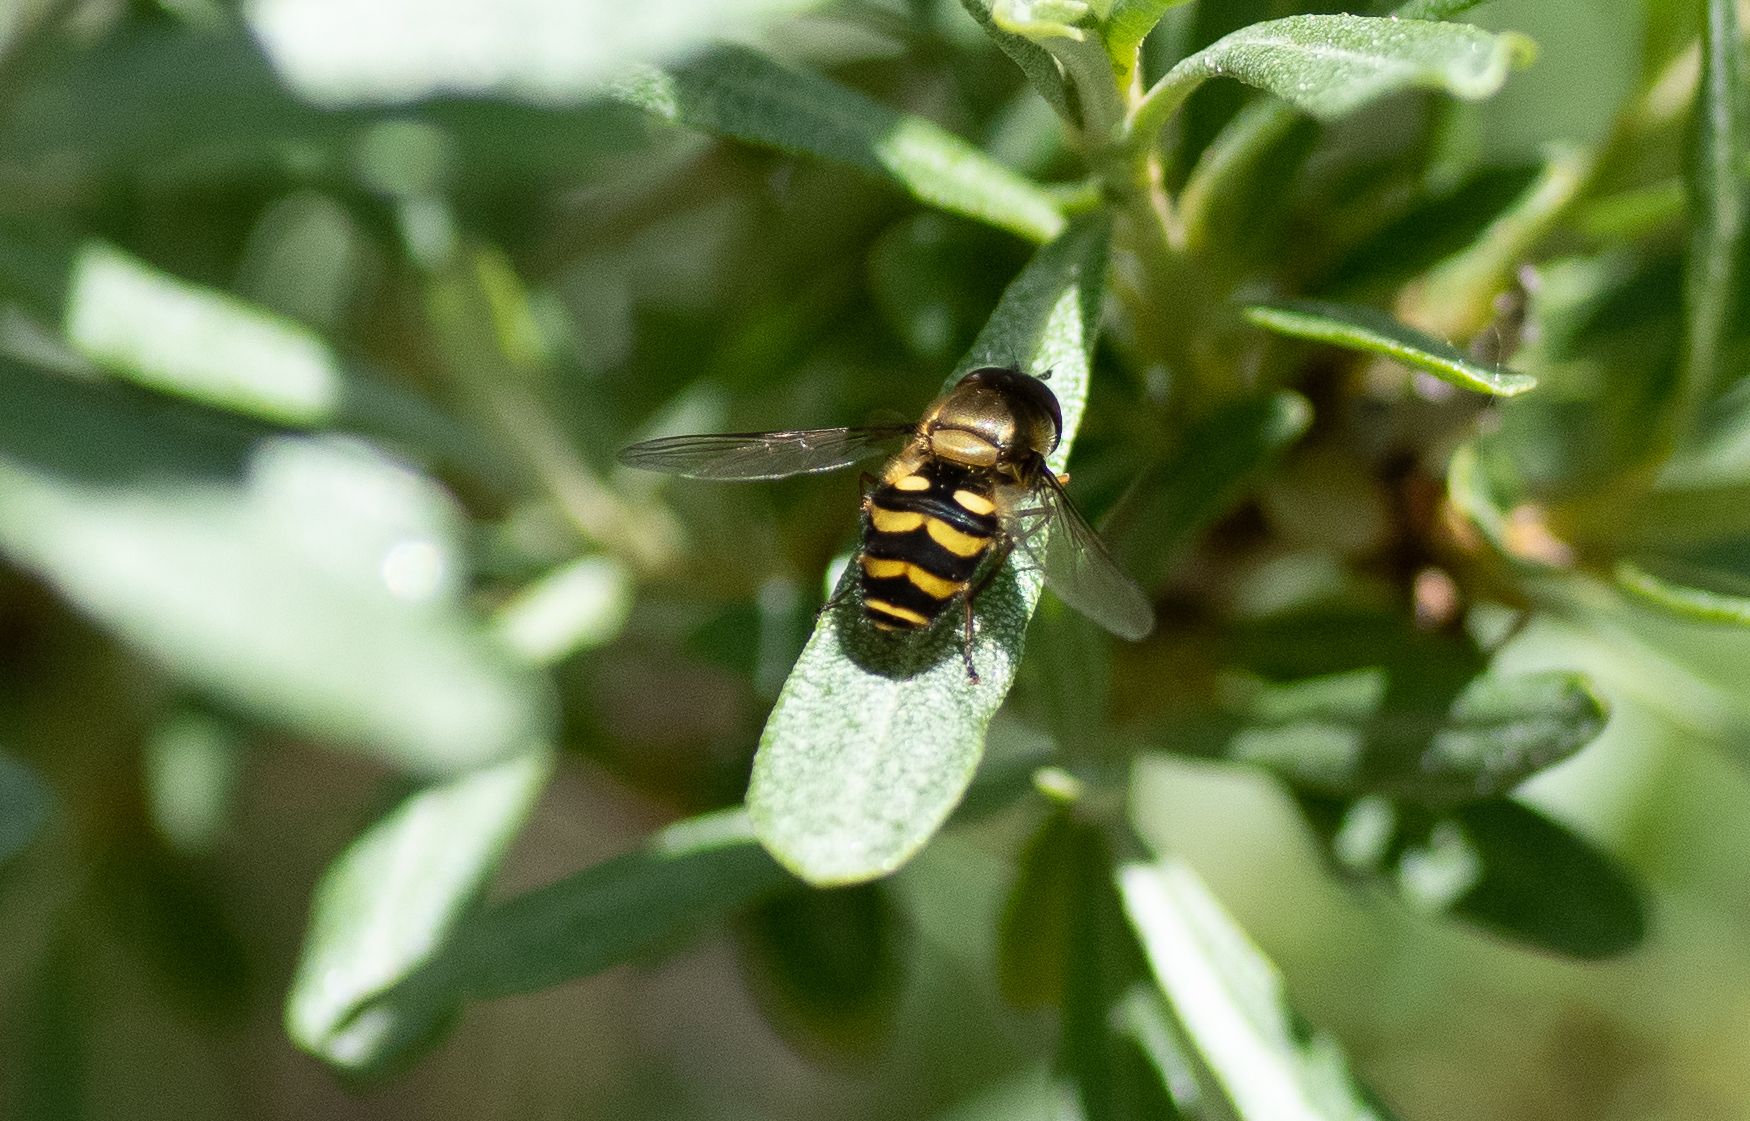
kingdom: Animalia
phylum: Arthropoda
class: Insecta
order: Diptera
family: Syrphidae
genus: Syrphus
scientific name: Syrphus
